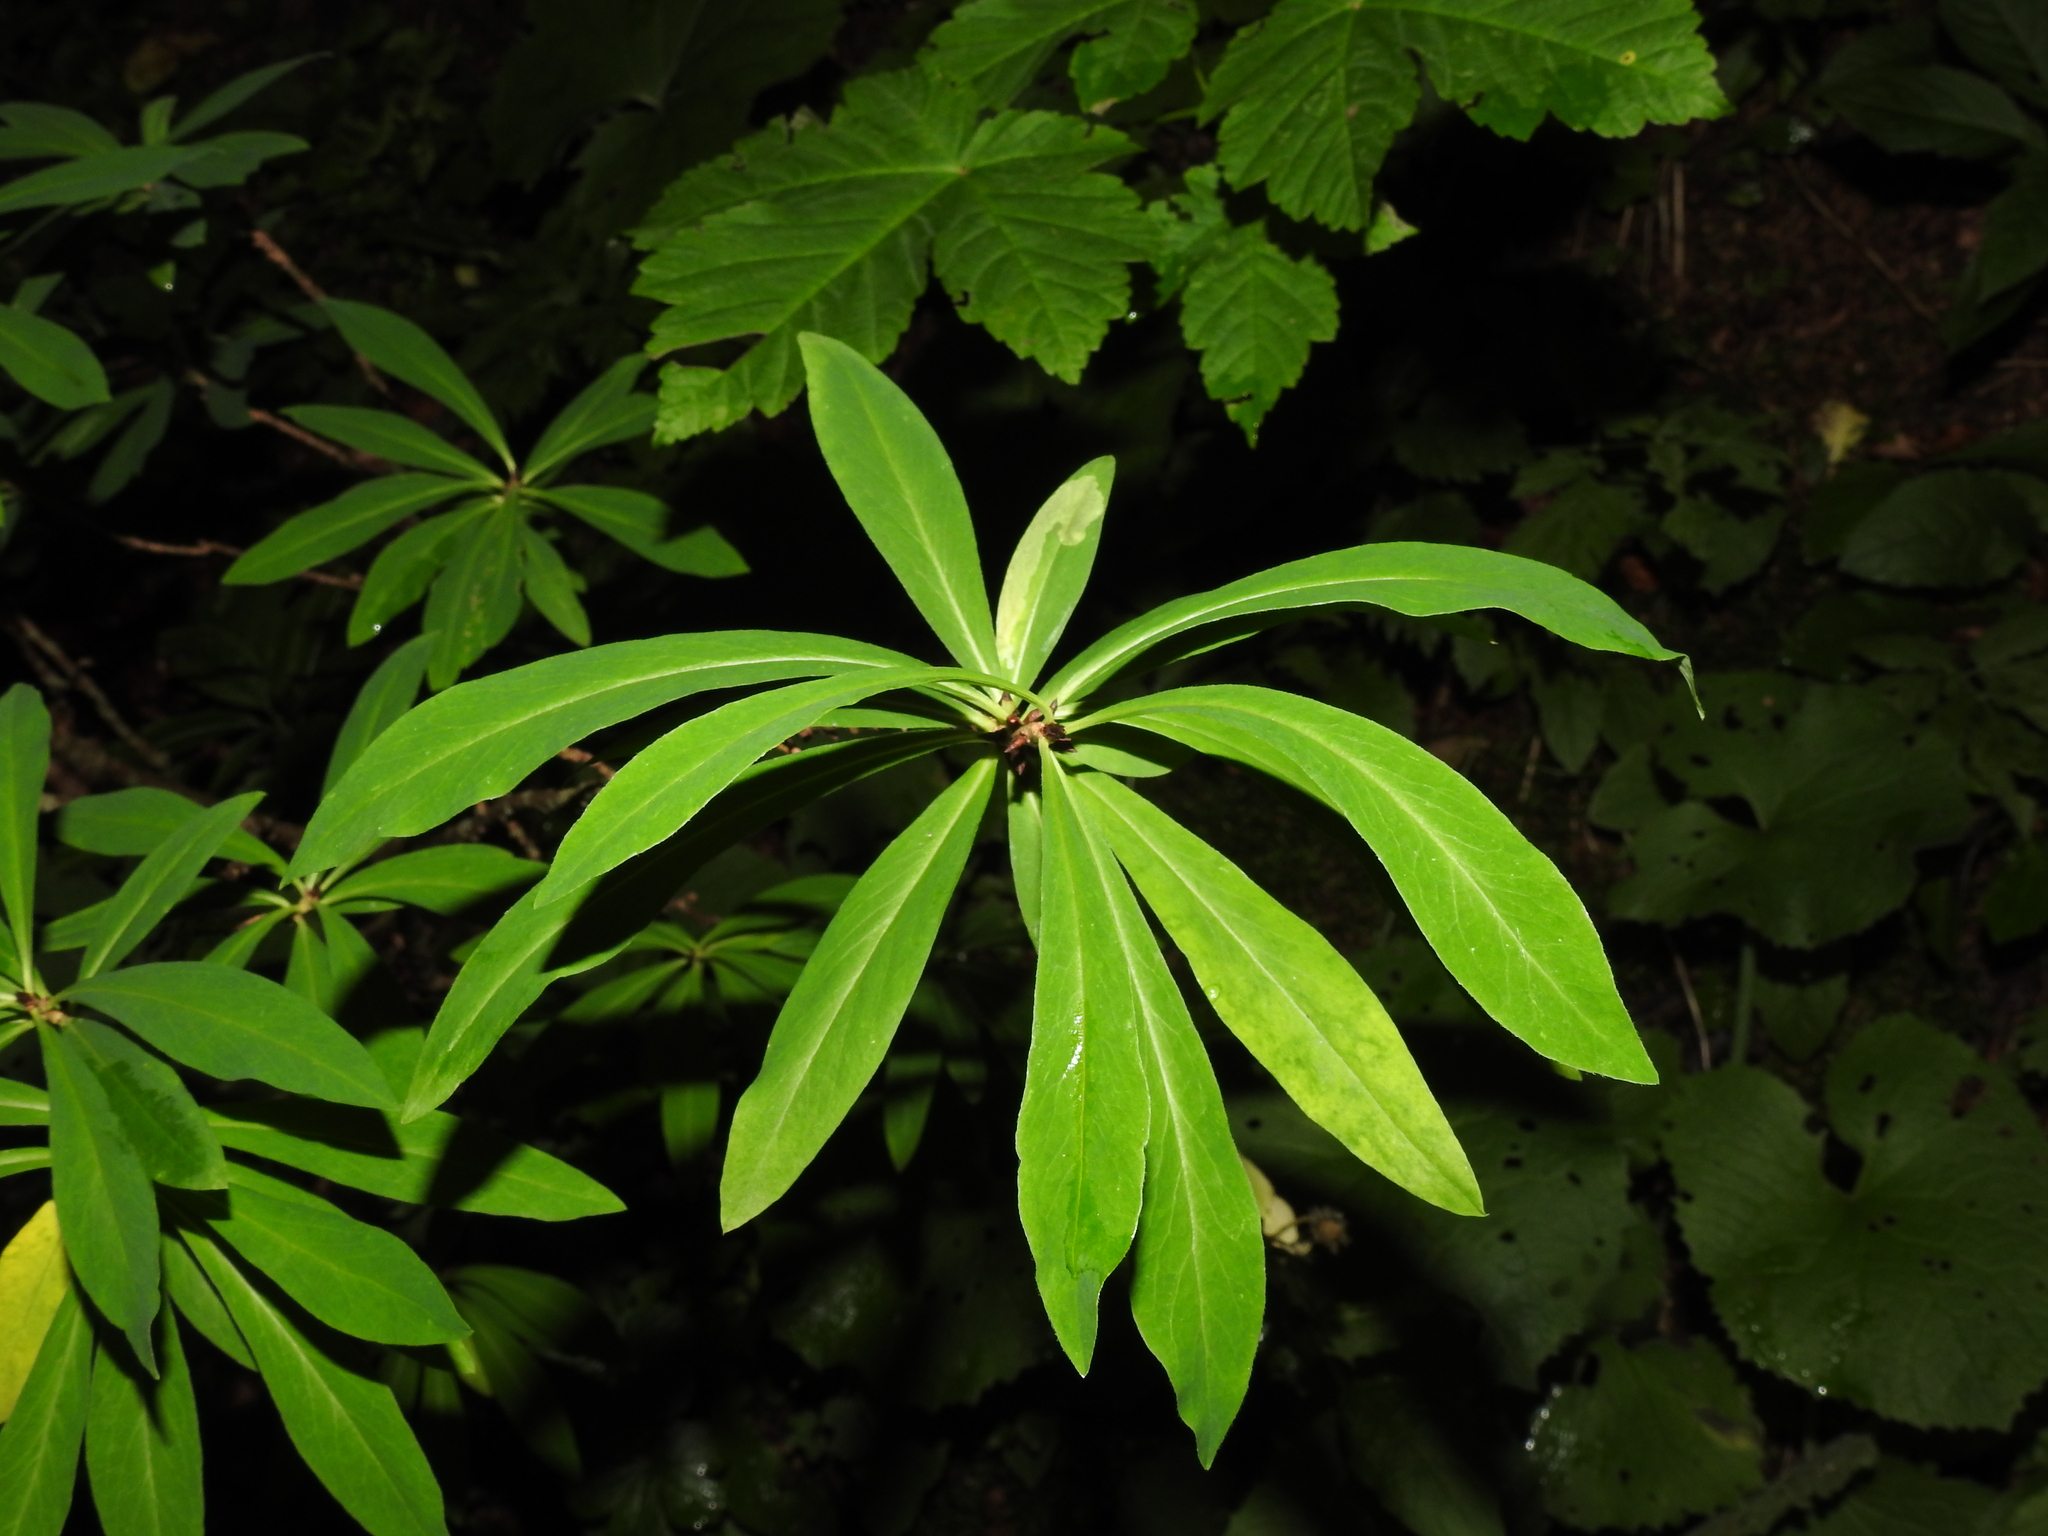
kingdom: Plantae
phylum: Tracheophyta
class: Magnoliopsida
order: Malvales
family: Thymelaeaceae
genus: Daphne
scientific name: Daphne mezereum
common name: Mezereon
